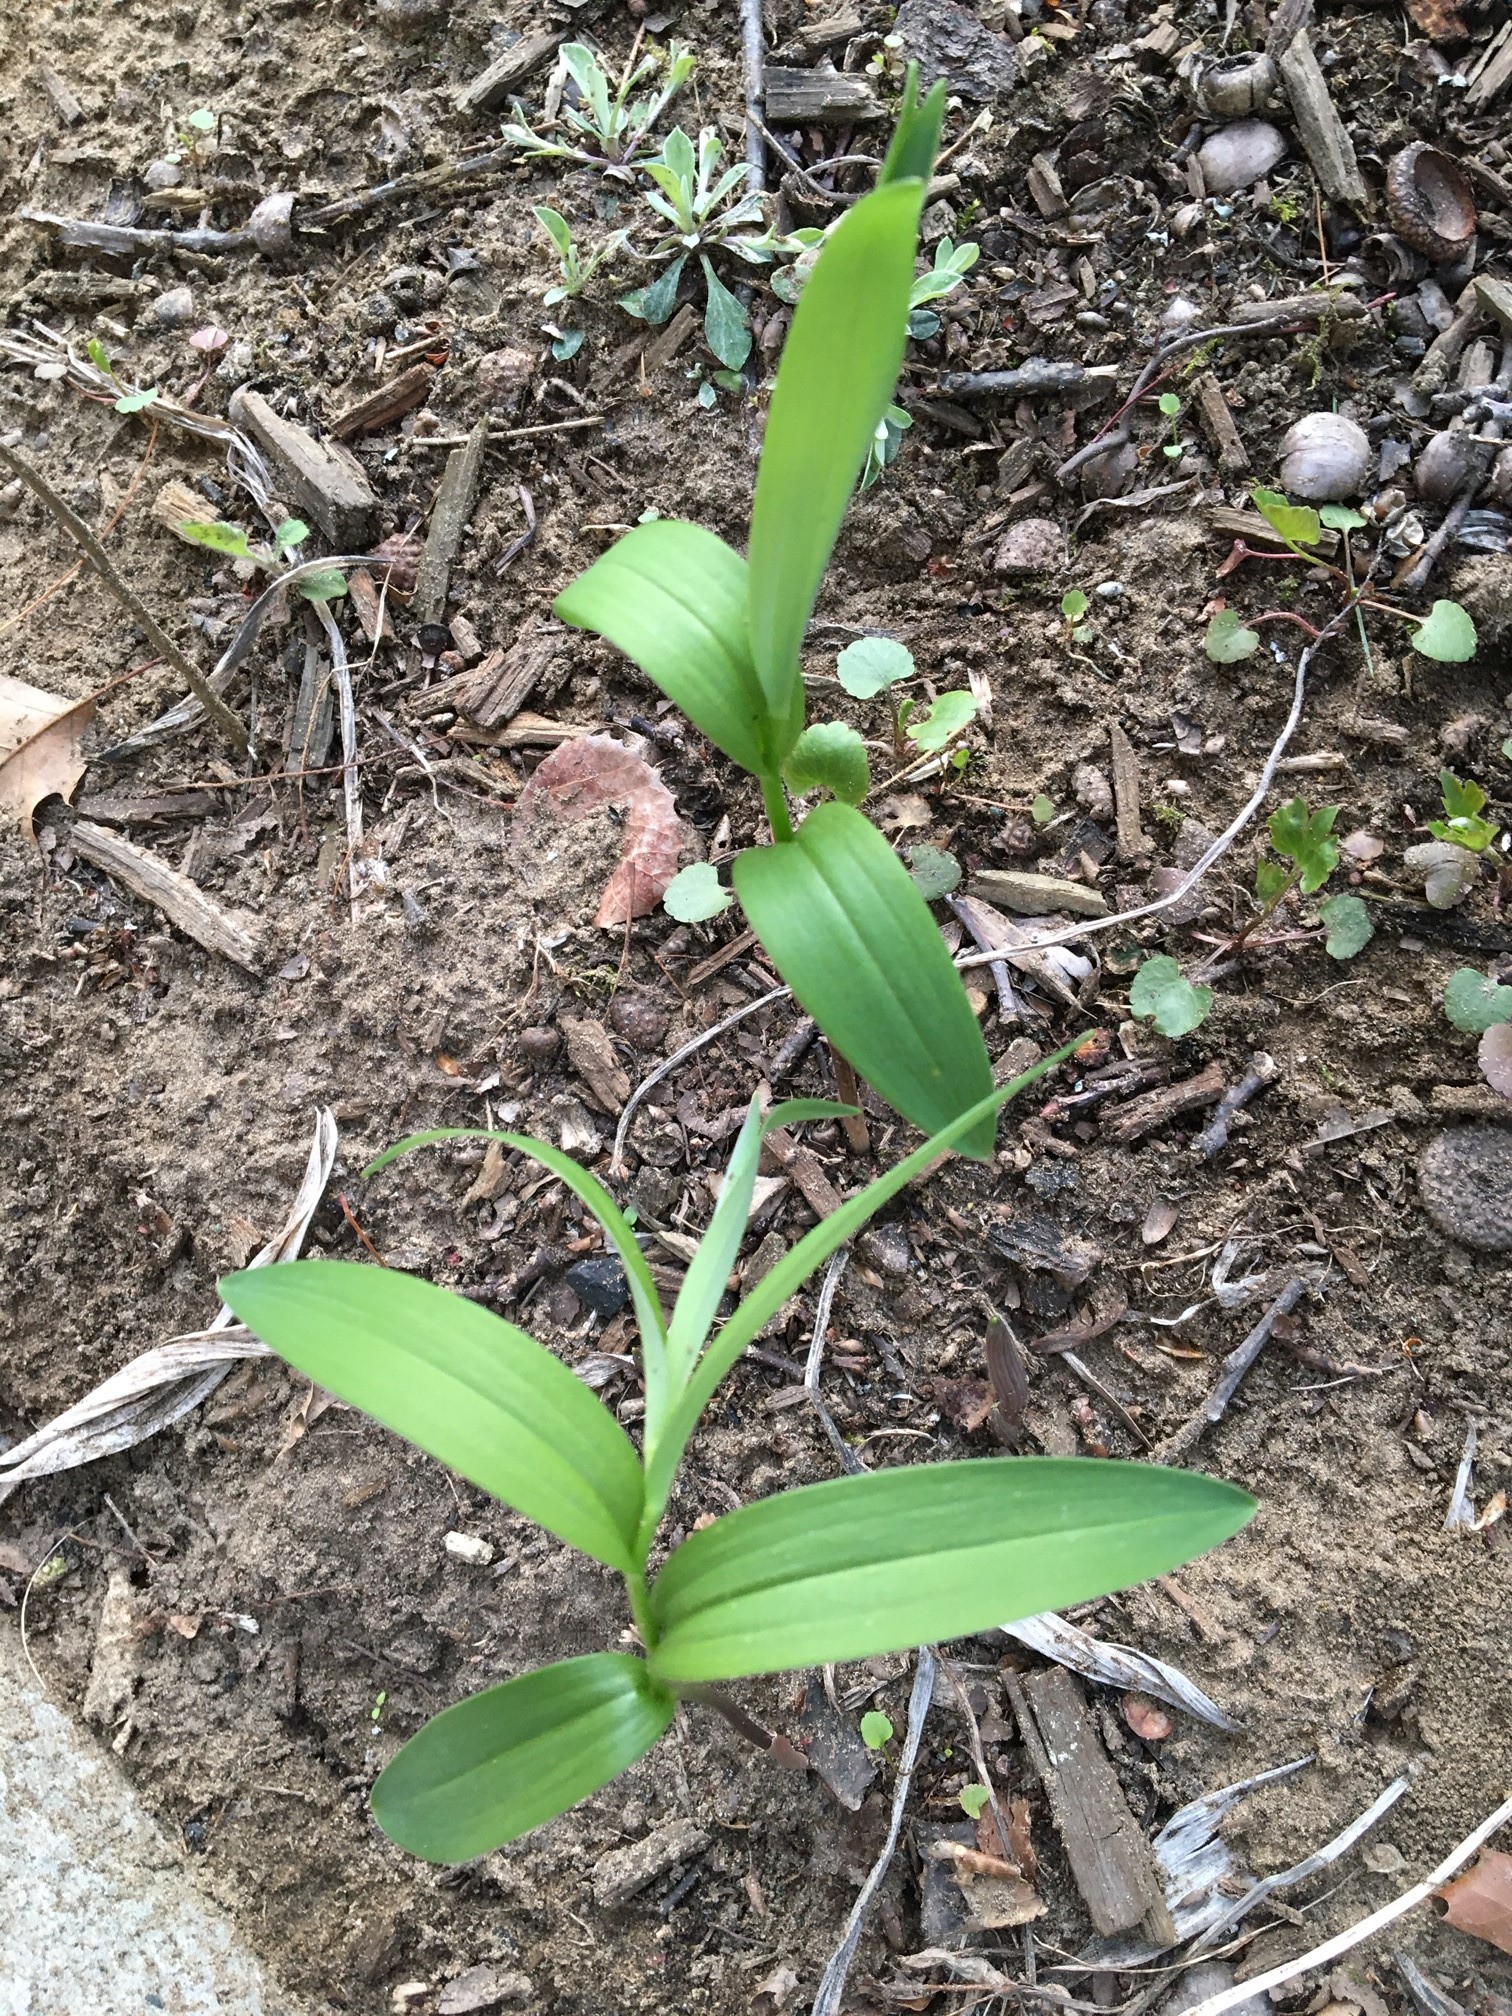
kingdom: Plantae
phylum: Tracheophyta
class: Liliopsida
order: Asparagales
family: Asparagaceae
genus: Maianthemum
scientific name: Maianthemum stellatum
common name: Little false solomon's seal
